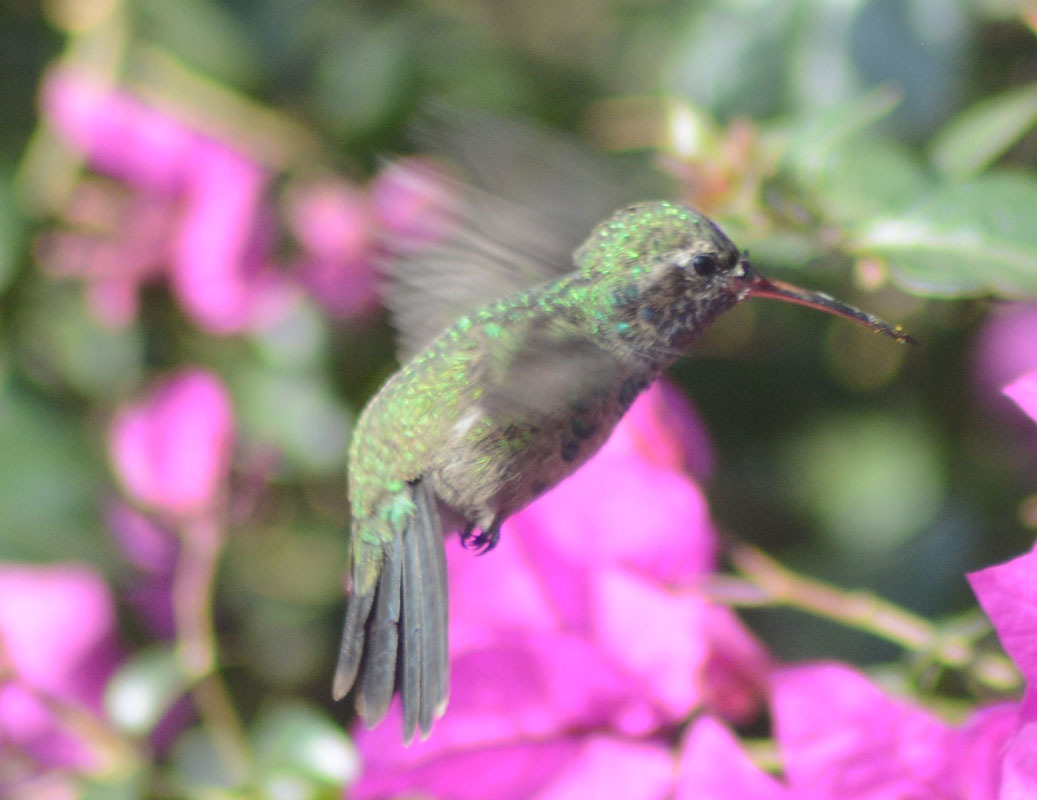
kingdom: Animalia
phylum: Chordata
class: Aves
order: Apodiformes
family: Trochilidae
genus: Cynanthus
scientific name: Cynanthus latirostris
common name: Broad-billed hummingbird
